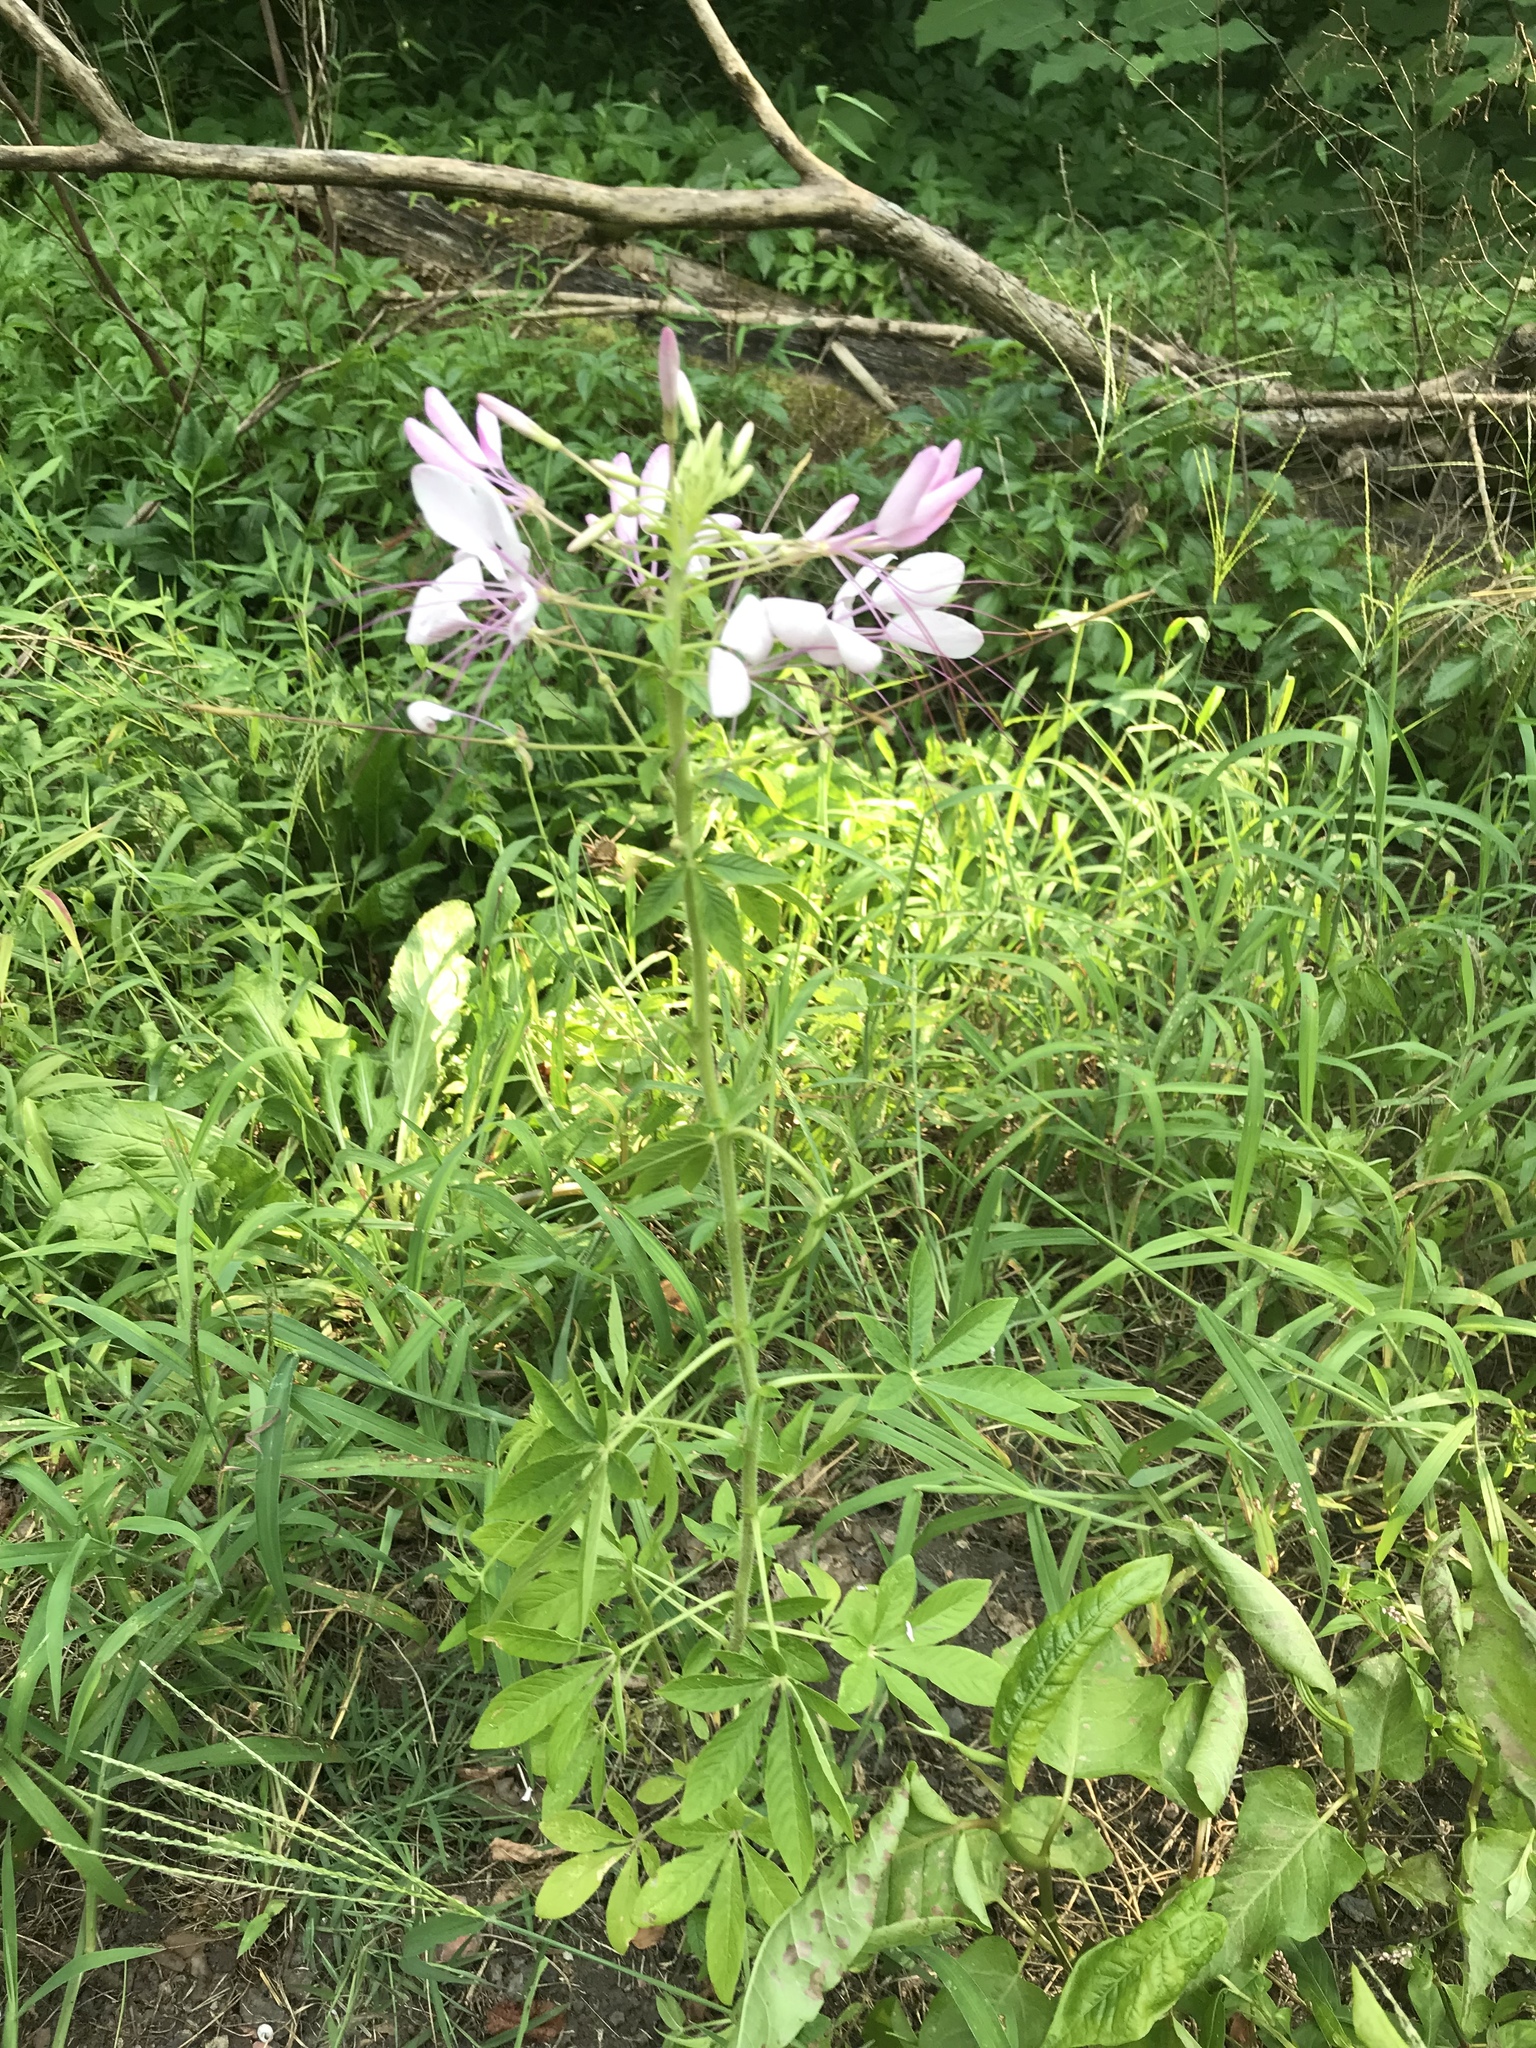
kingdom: Plantae
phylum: Tracheophyta
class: Magnoliopsida
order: Brassicales
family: Cleomaceae
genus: Tarenaya
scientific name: Tarenaya houtteana
